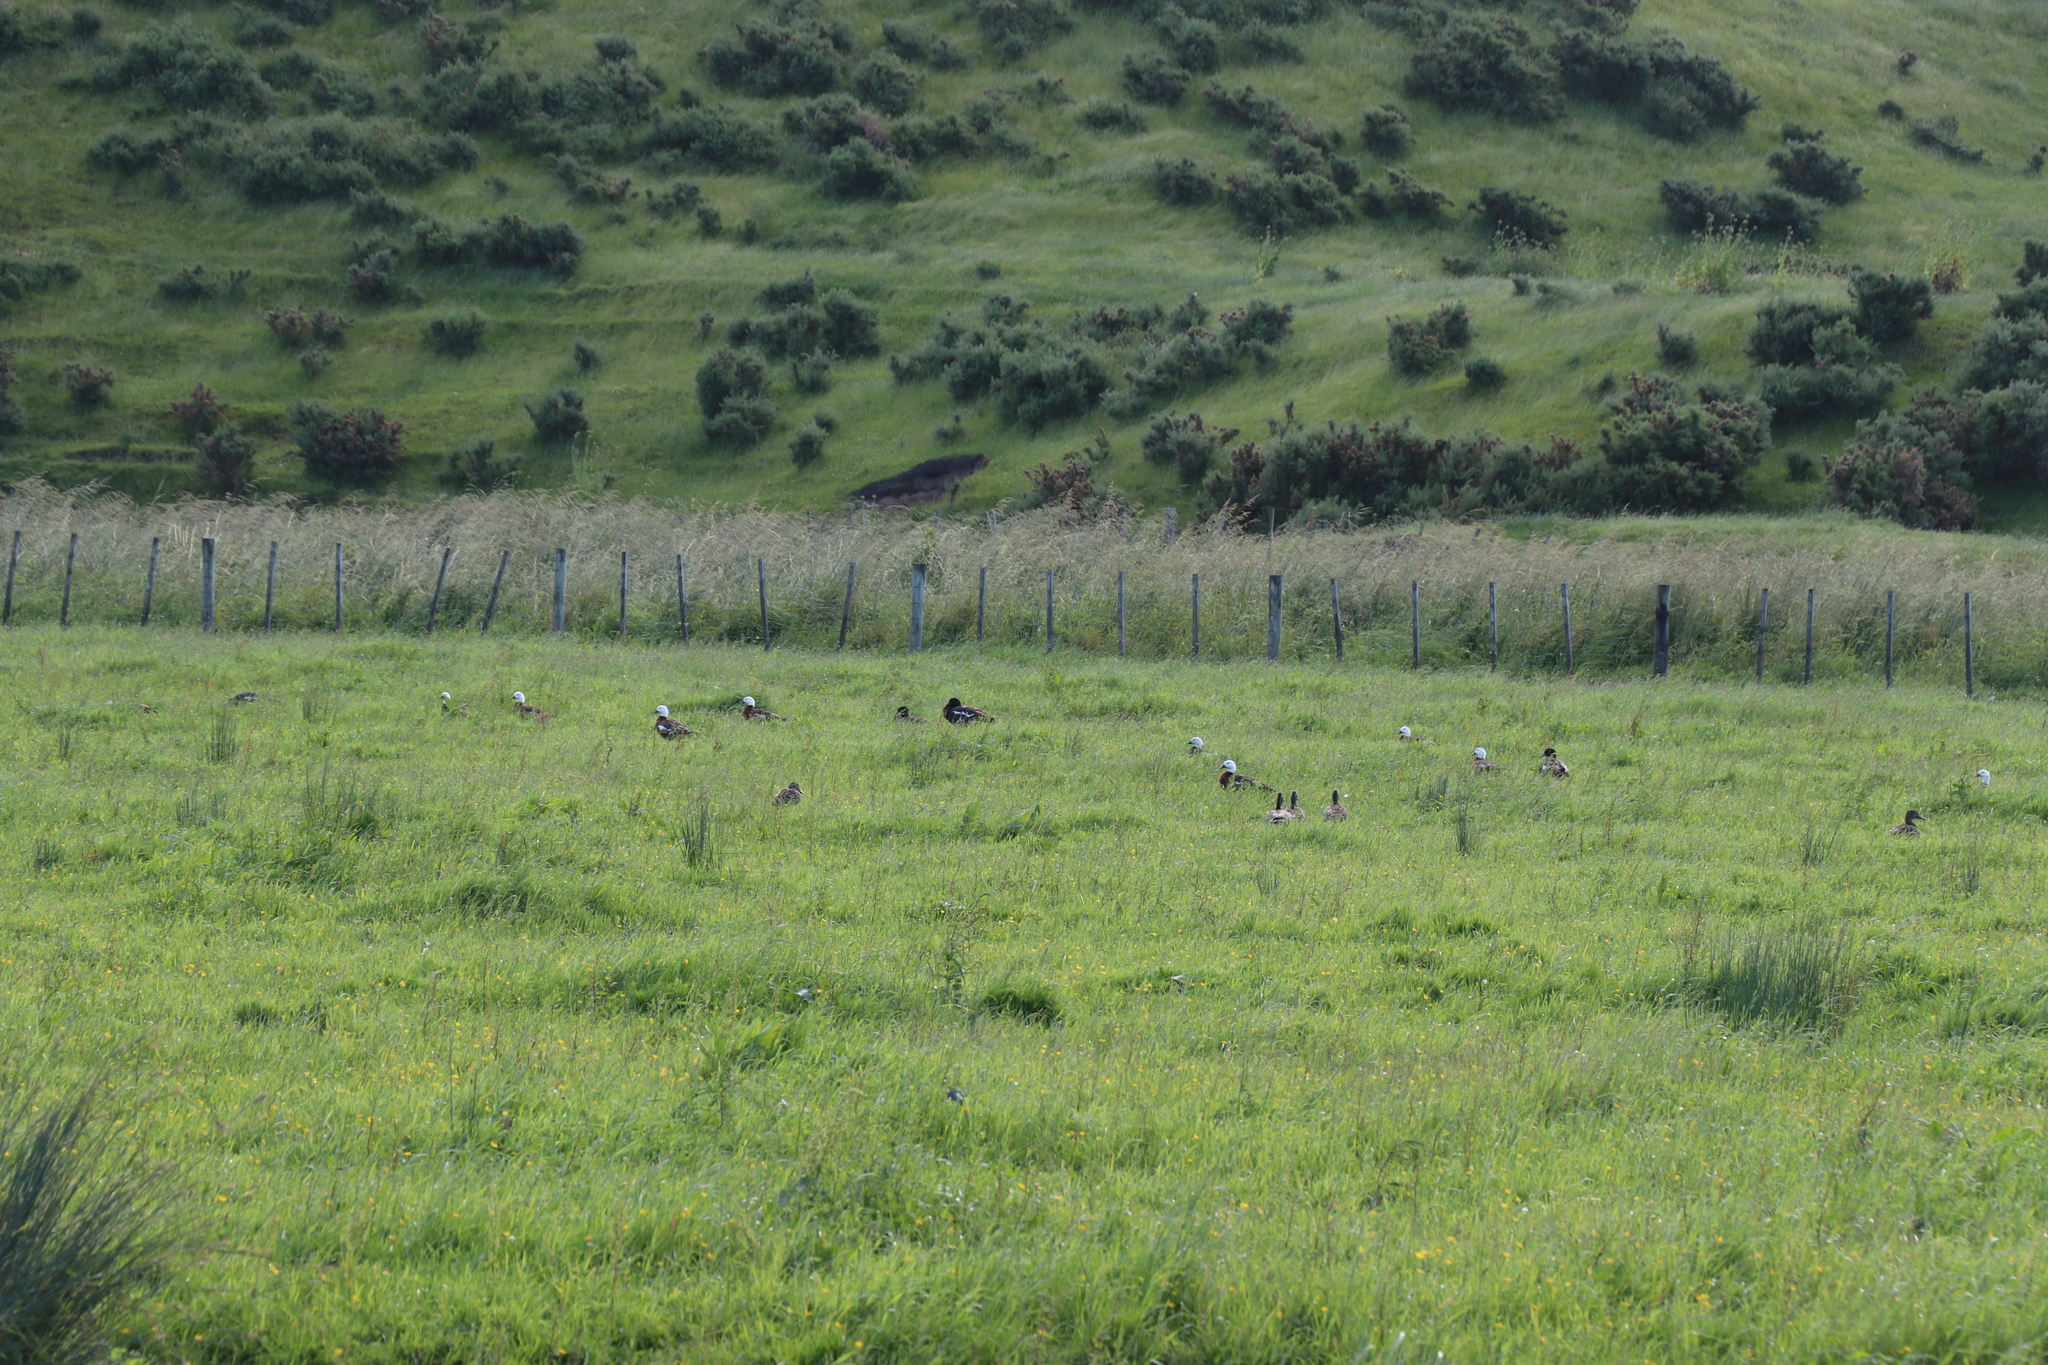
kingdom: Animalia
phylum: Chordata
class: Aves
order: Anseriformes
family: Anatidae
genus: Tadorna
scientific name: Tadorna variegata
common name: Paradise shelduck
